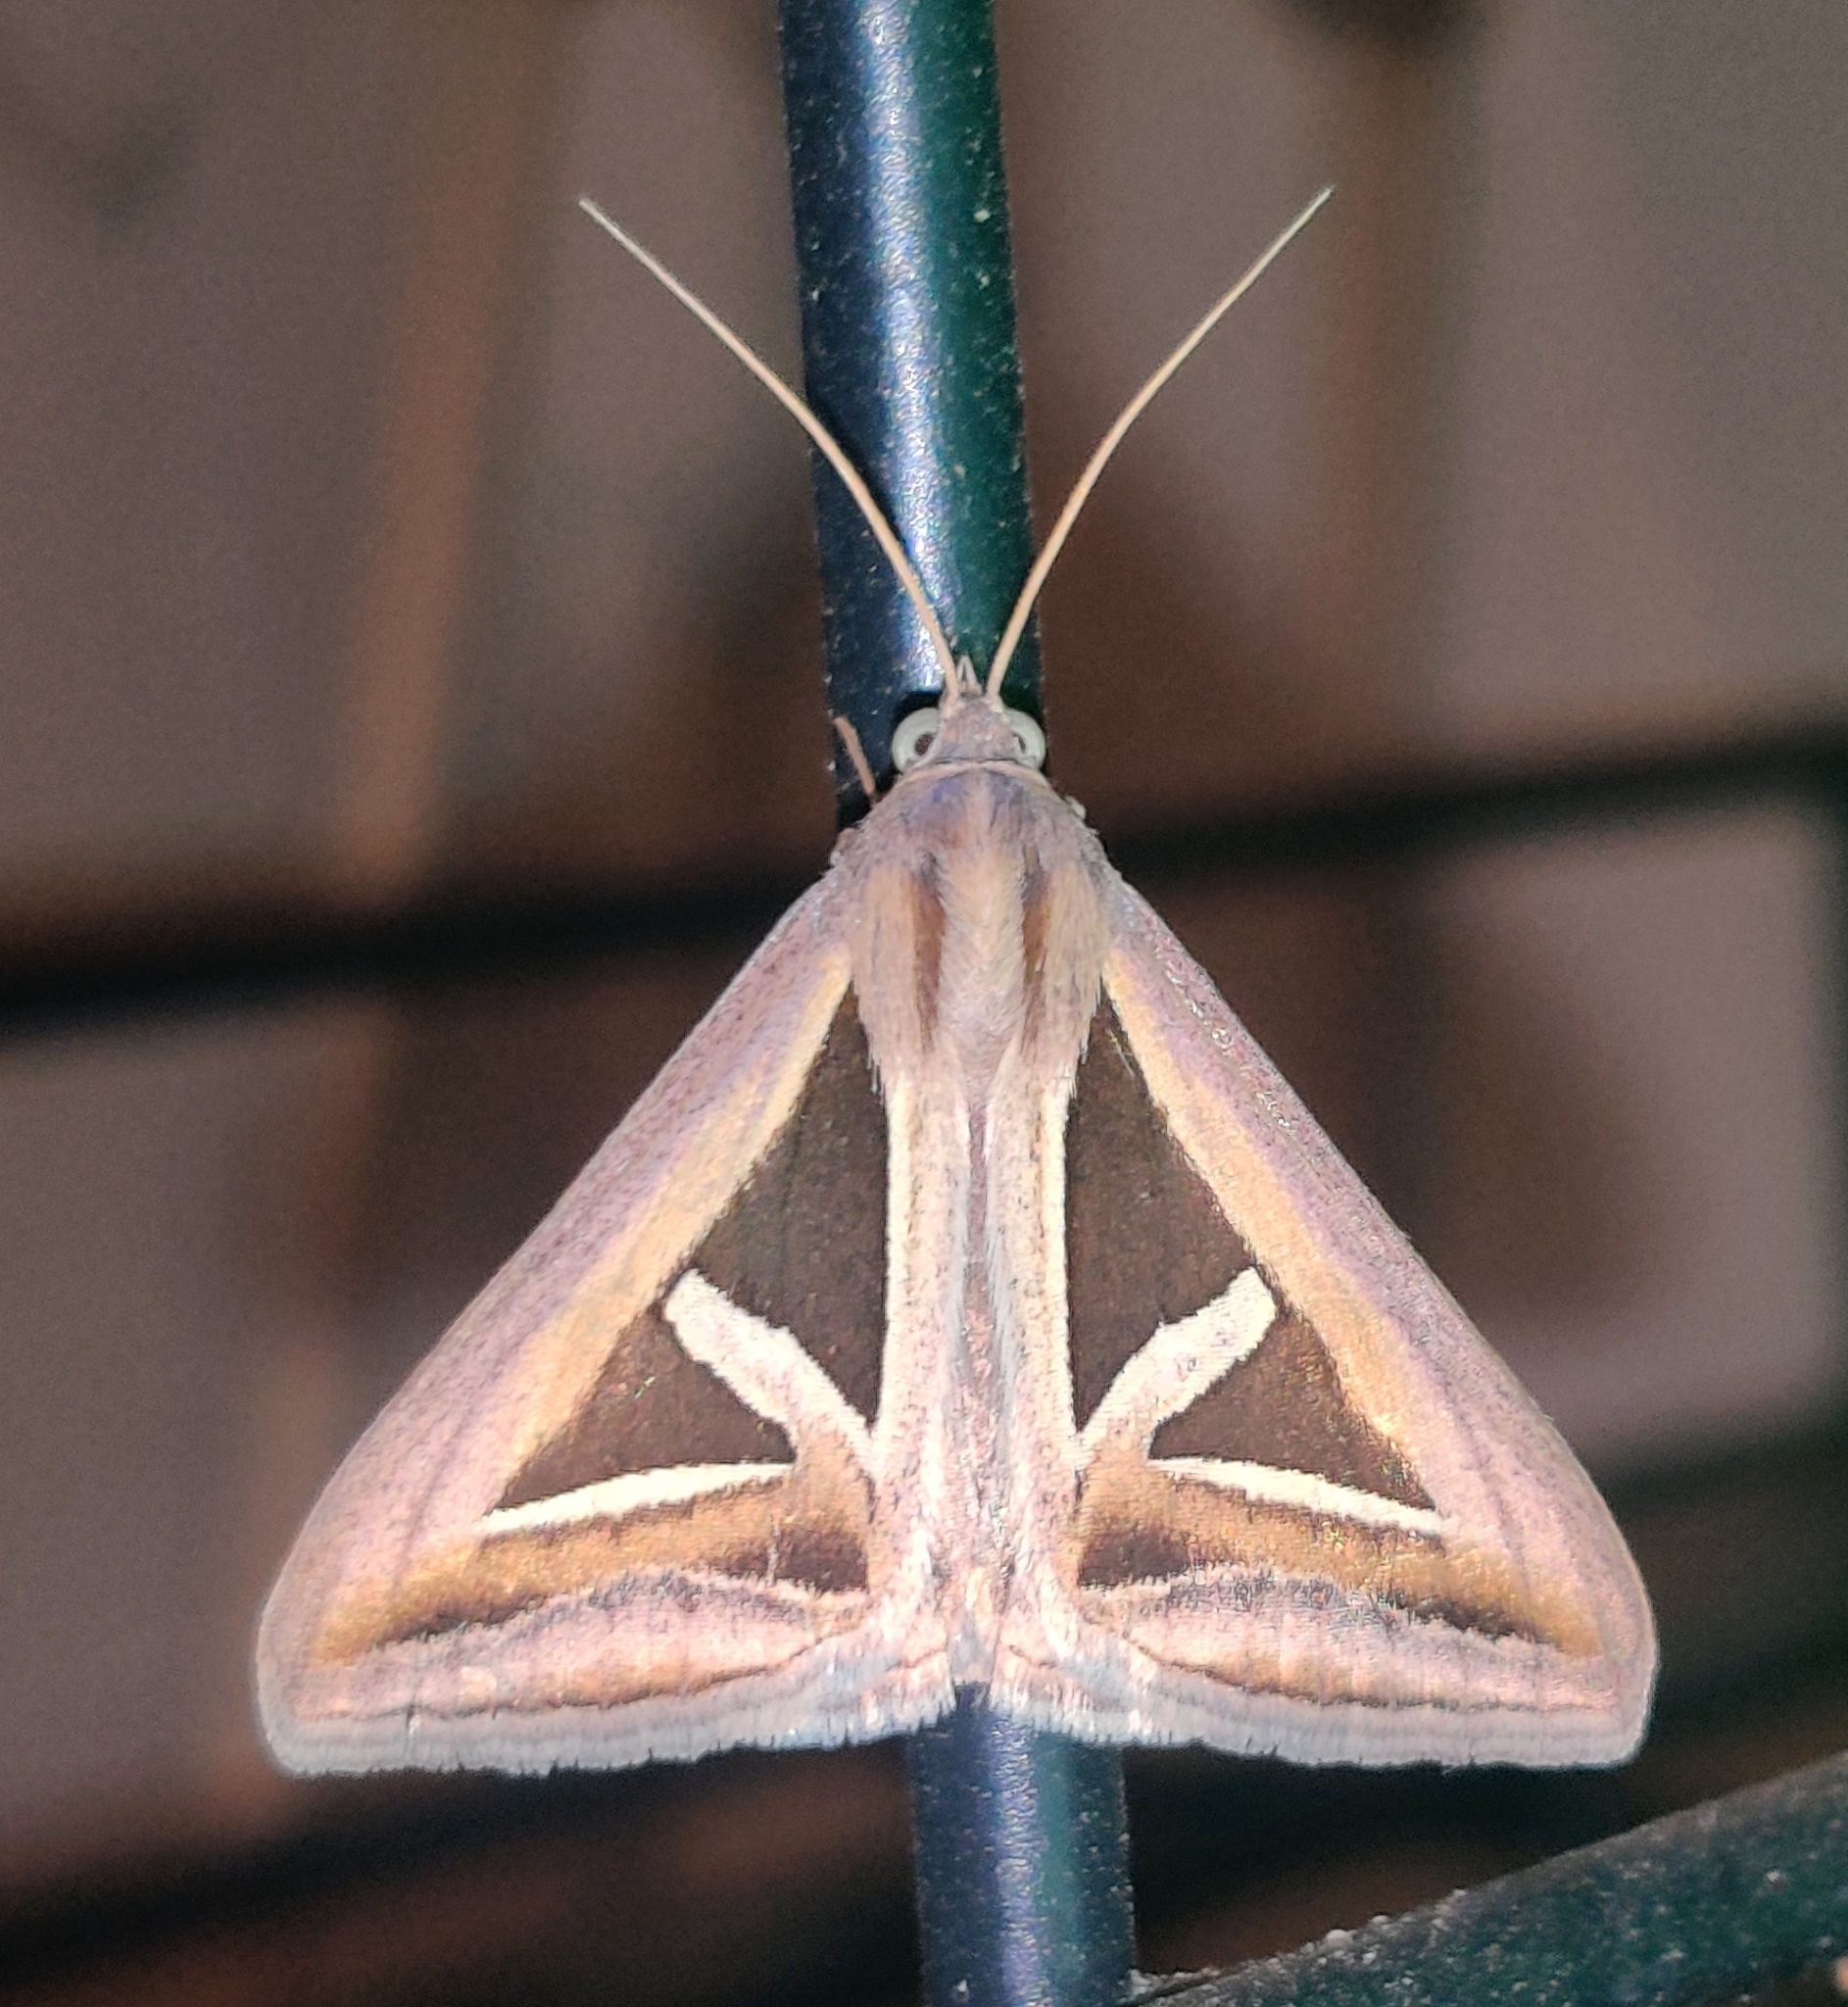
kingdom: Animalia
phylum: Arthropoda
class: Insecta
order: Lepidoptera
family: Erebidae
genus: Trigonodes
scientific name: Trigonodes hyppasia
